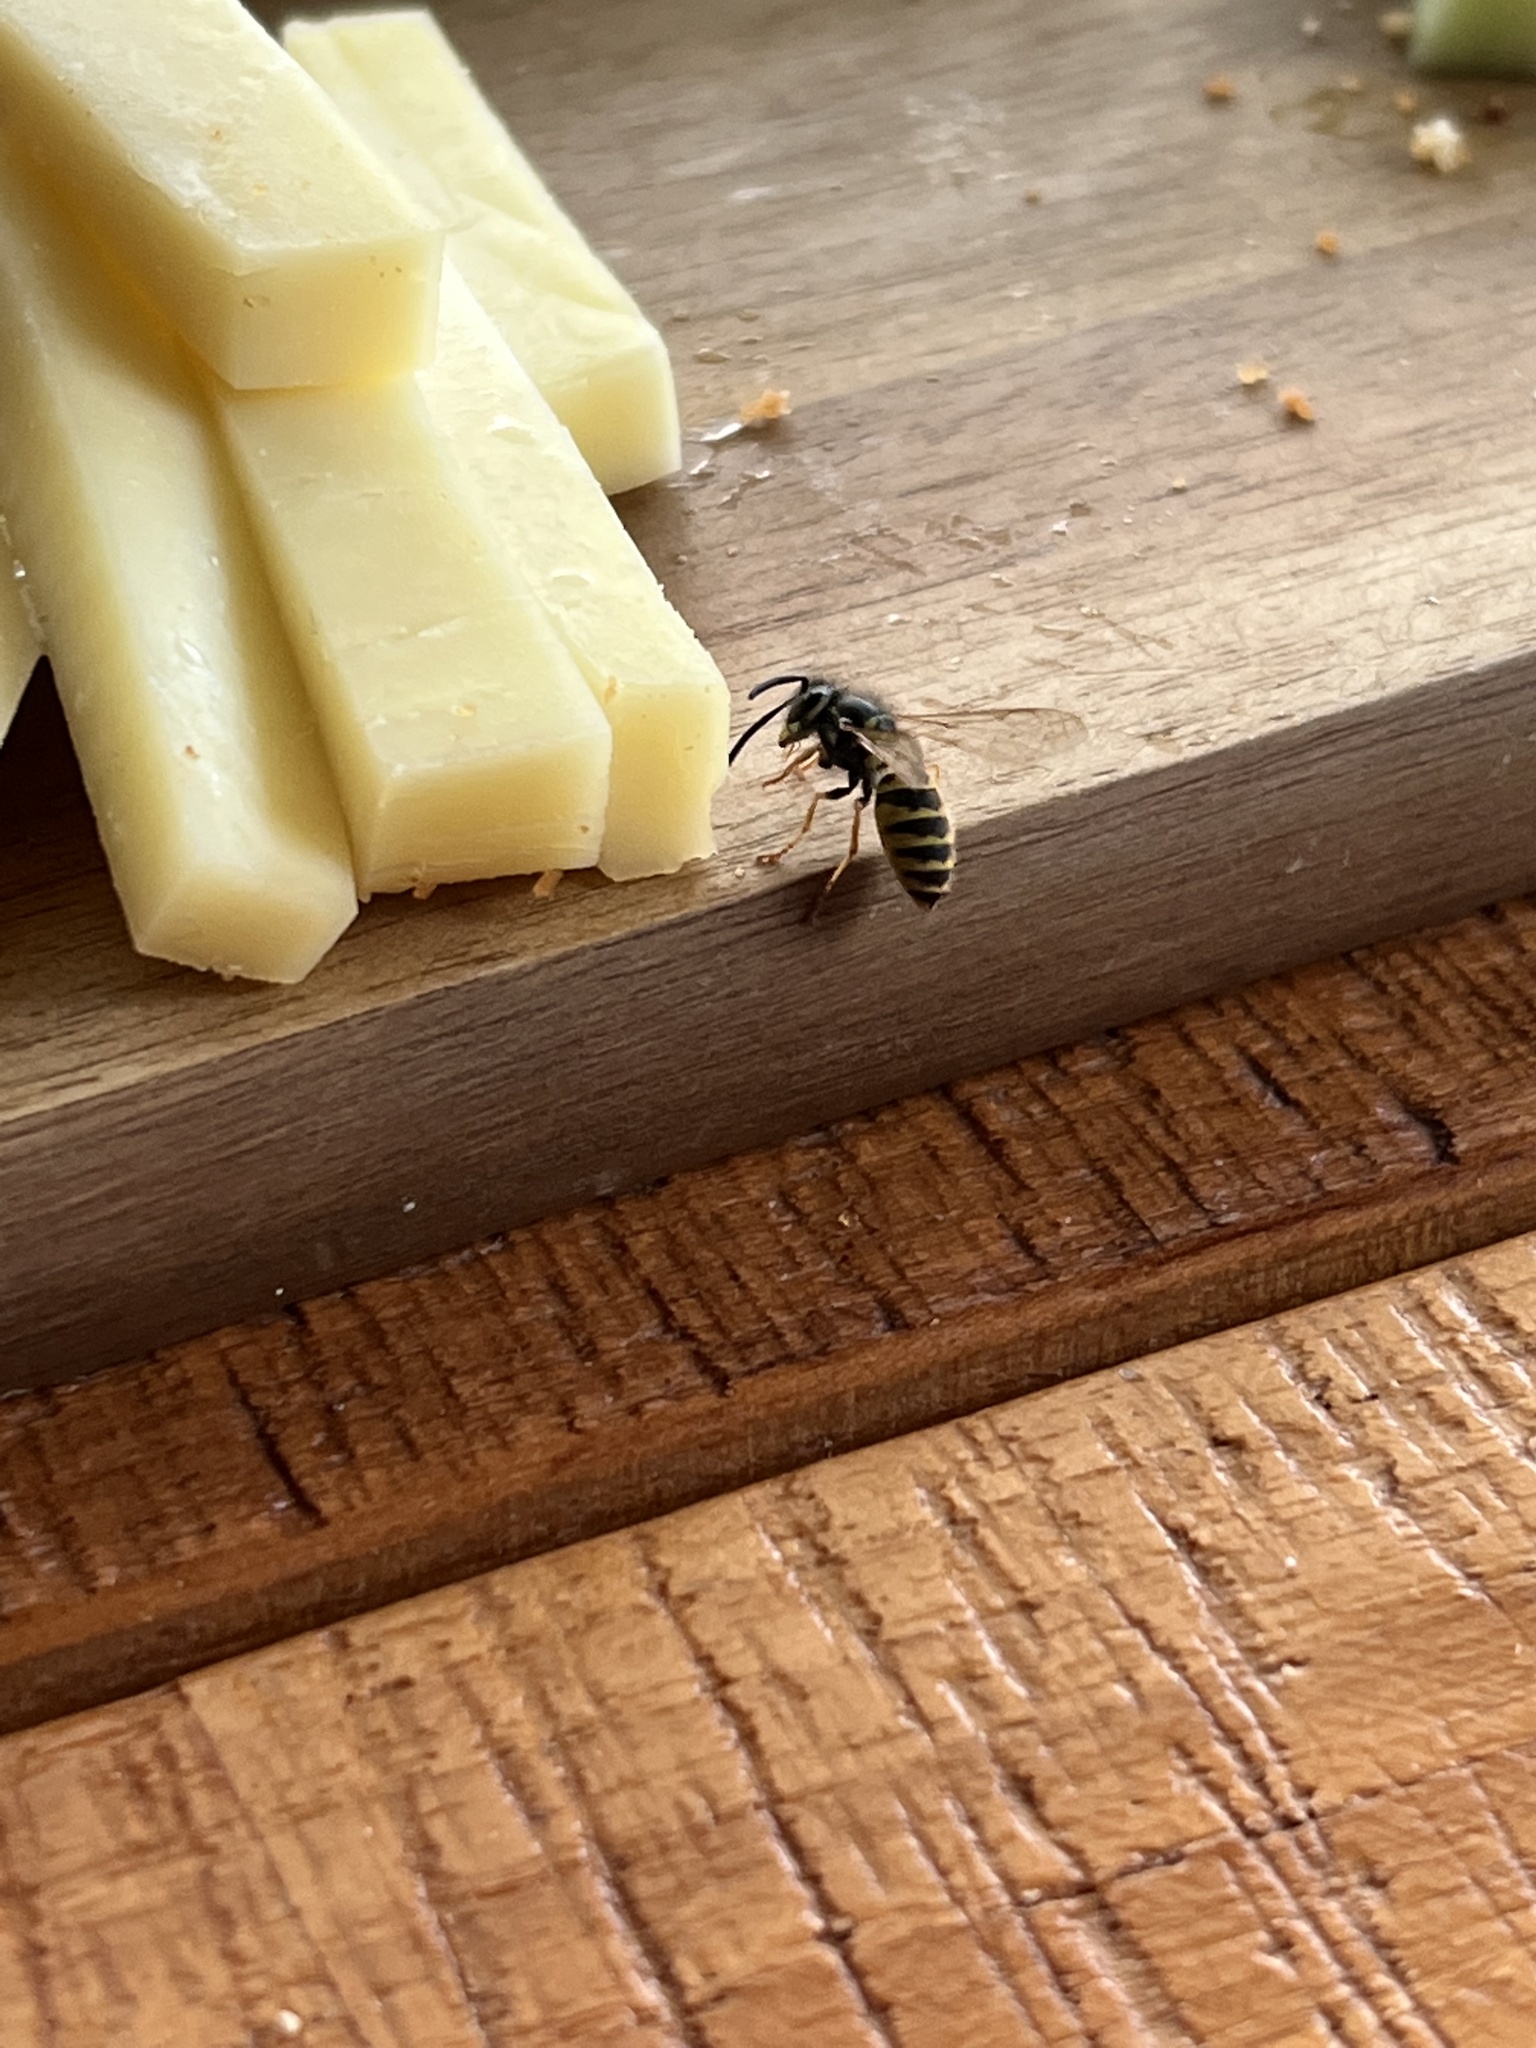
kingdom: Animalia
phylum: Arthropoda
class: Insecta
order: Hymenoptera
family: Vespidae
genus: Vespula
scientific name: Vespula vulgaris
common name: Common wasp
